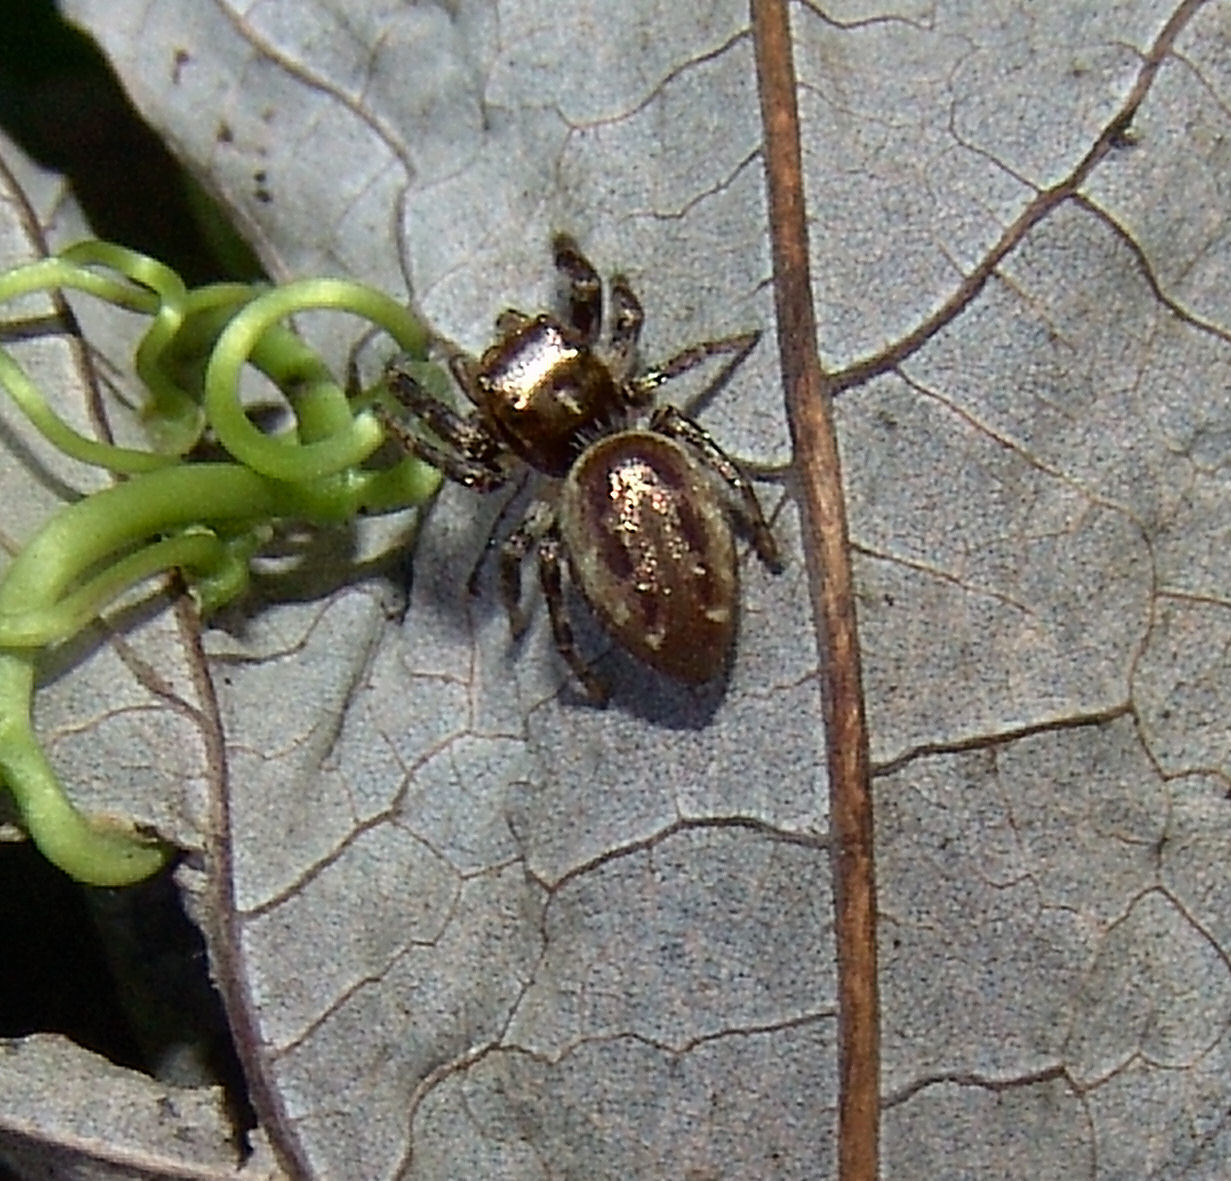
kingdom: Animalia
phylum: Arthropoda
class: Arachnida
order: Araneae
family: Salticidae
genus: Eris
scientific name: Eris militaris
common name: Bronze jumper
